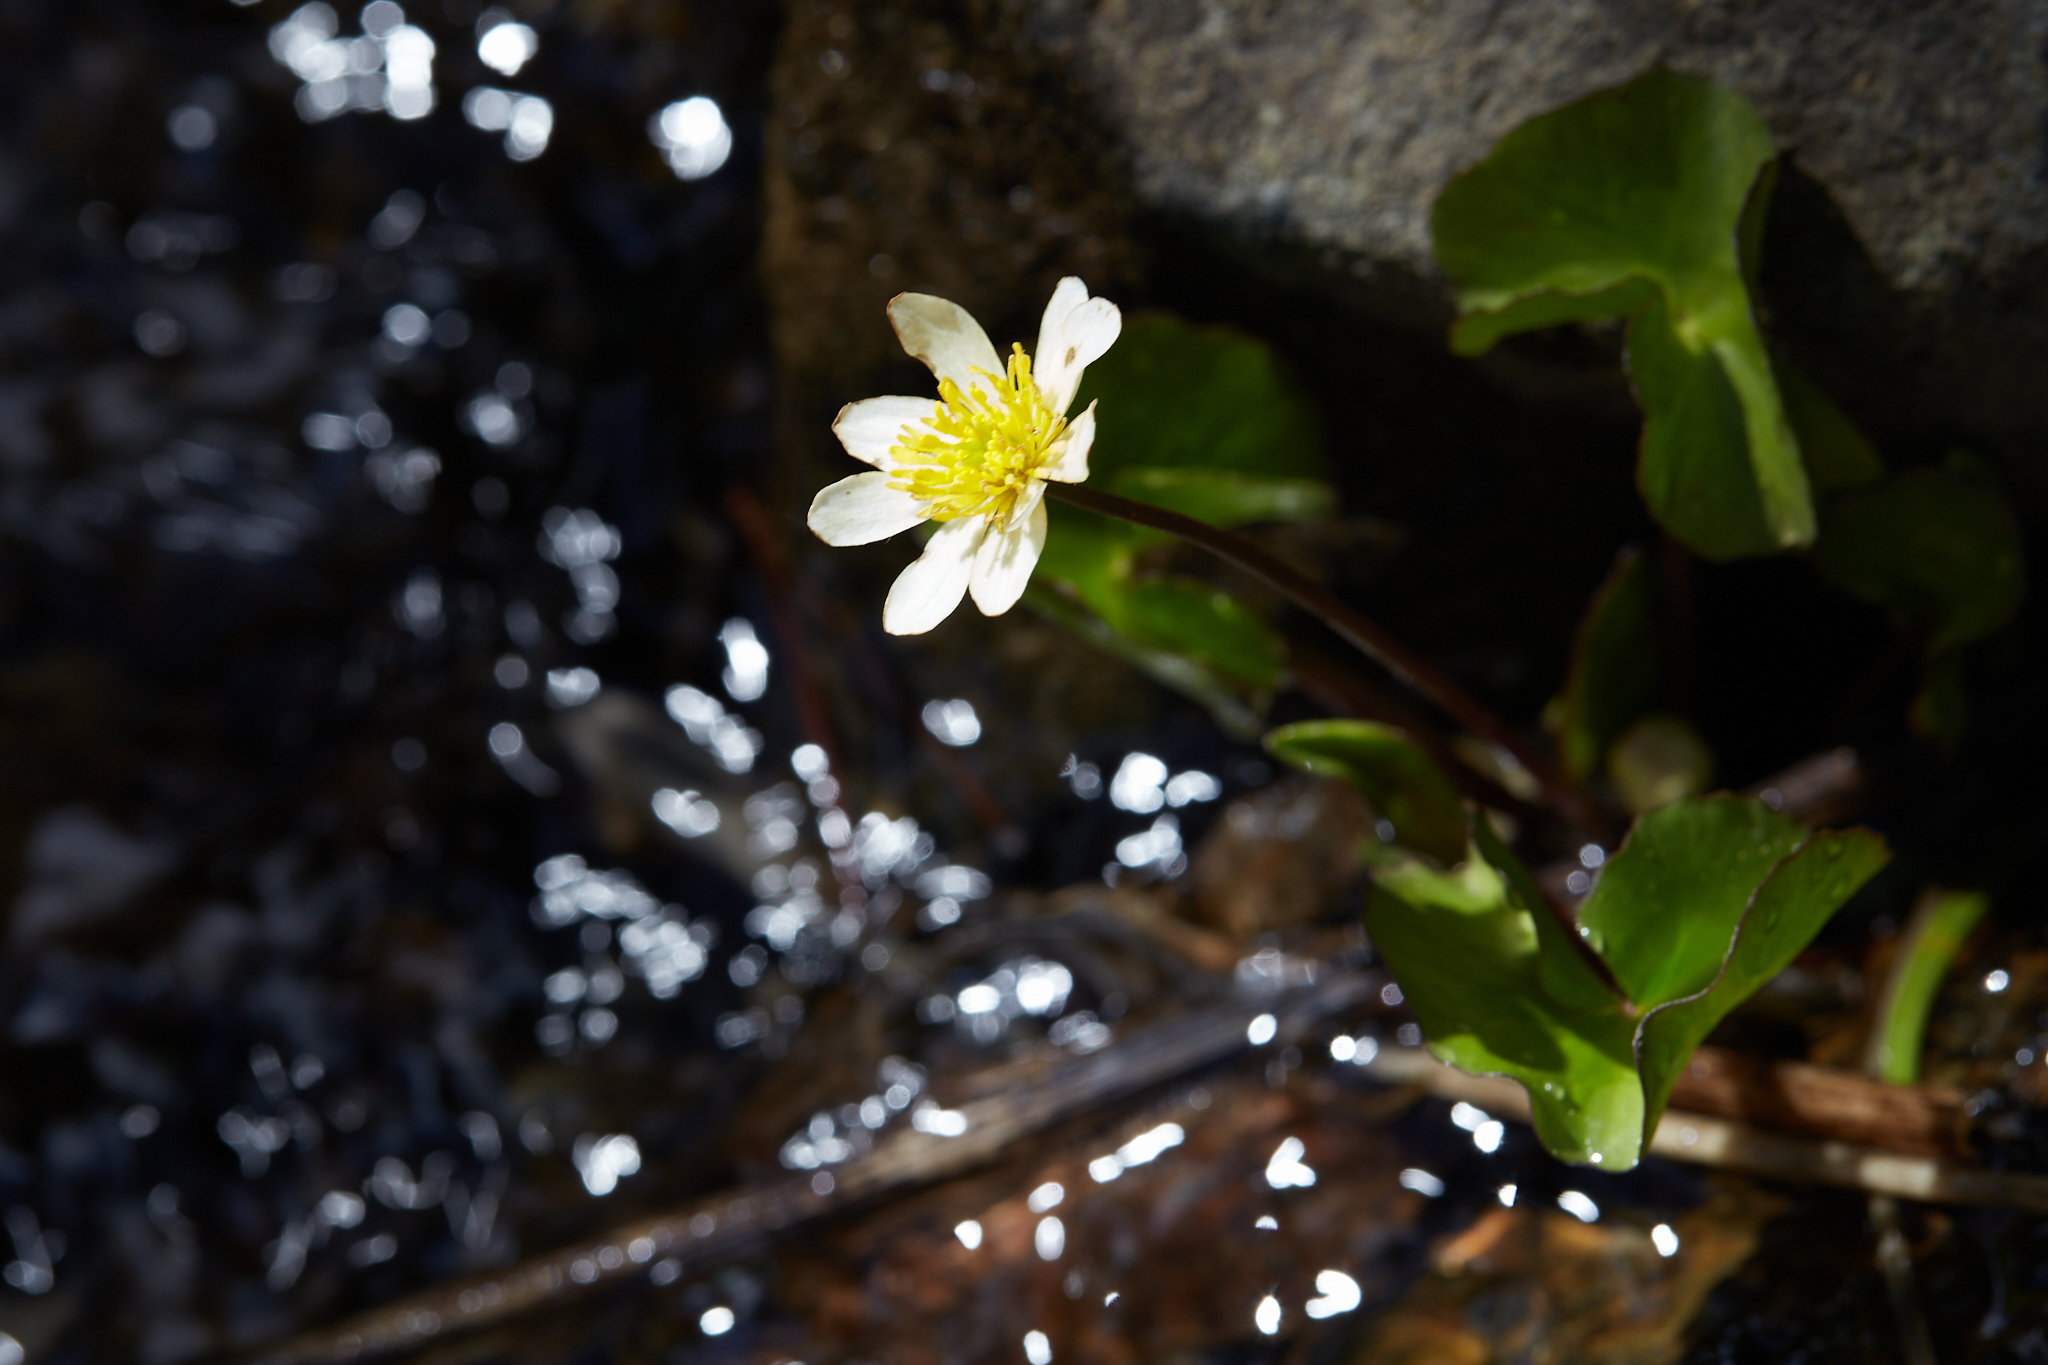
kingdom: Plantae
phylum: Tracheophyta
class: Magnoliopsida
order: Ranunculales
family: Ranunculaceae
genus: Caltha
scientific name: Caltha leptosepala
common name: Elkslip
